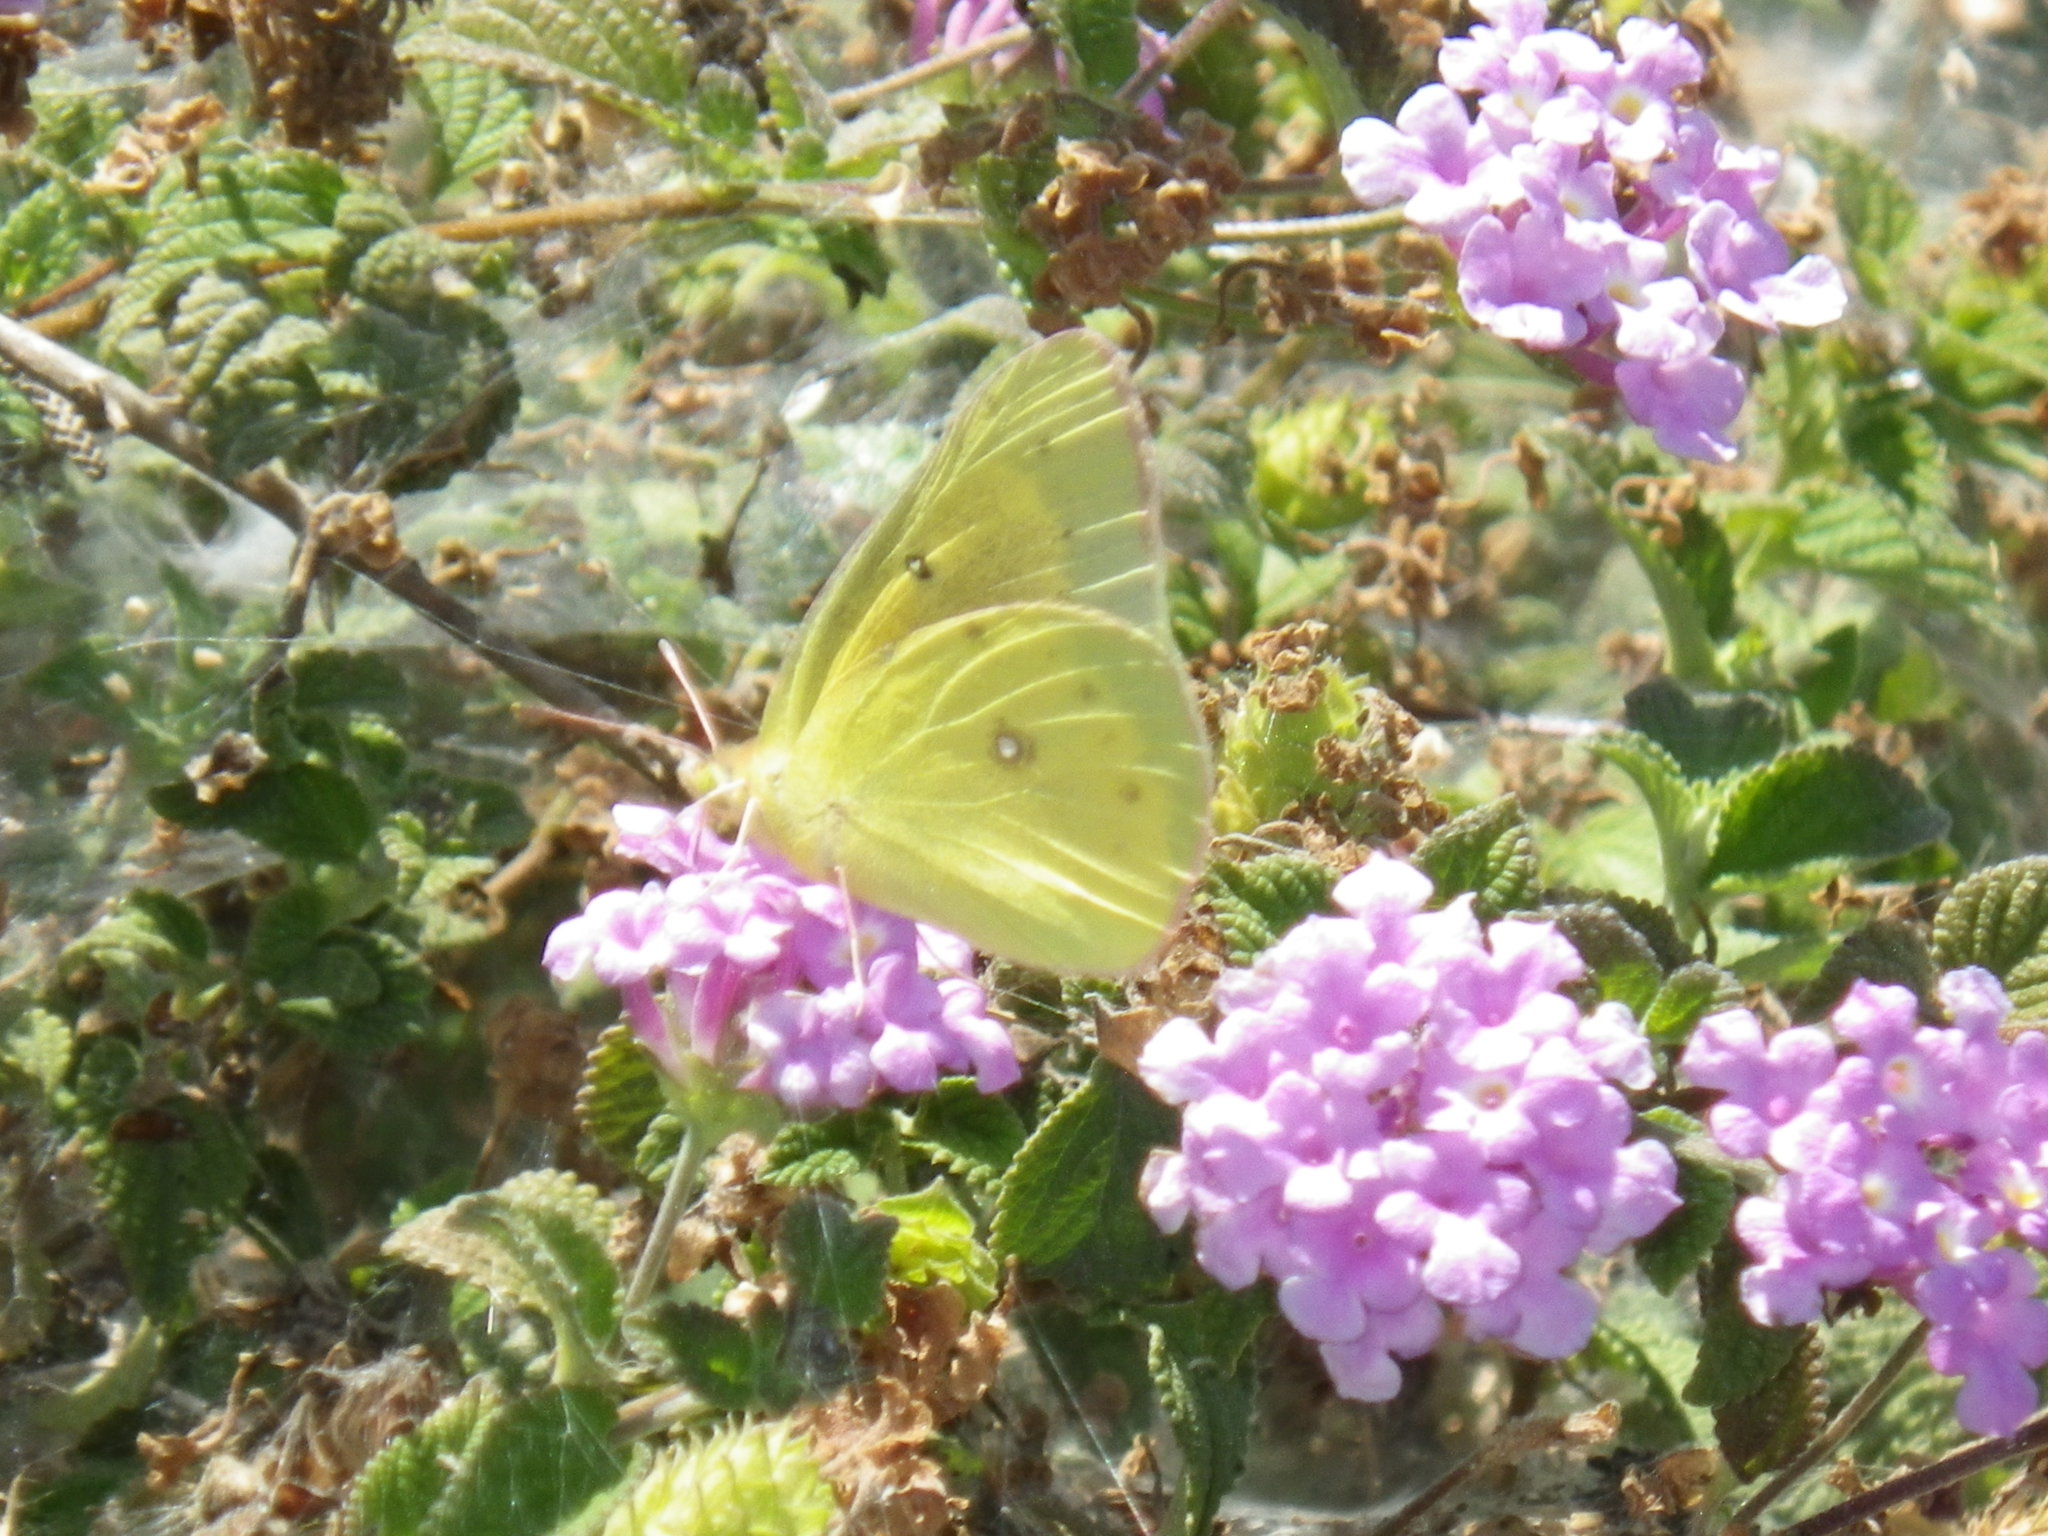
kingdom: Animalia
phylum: Arthropoda
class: Insecta
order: Lepidoptera
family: Pieridae
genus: Colias
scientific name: Colias eurytheme
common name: Alfalfa butterfly
